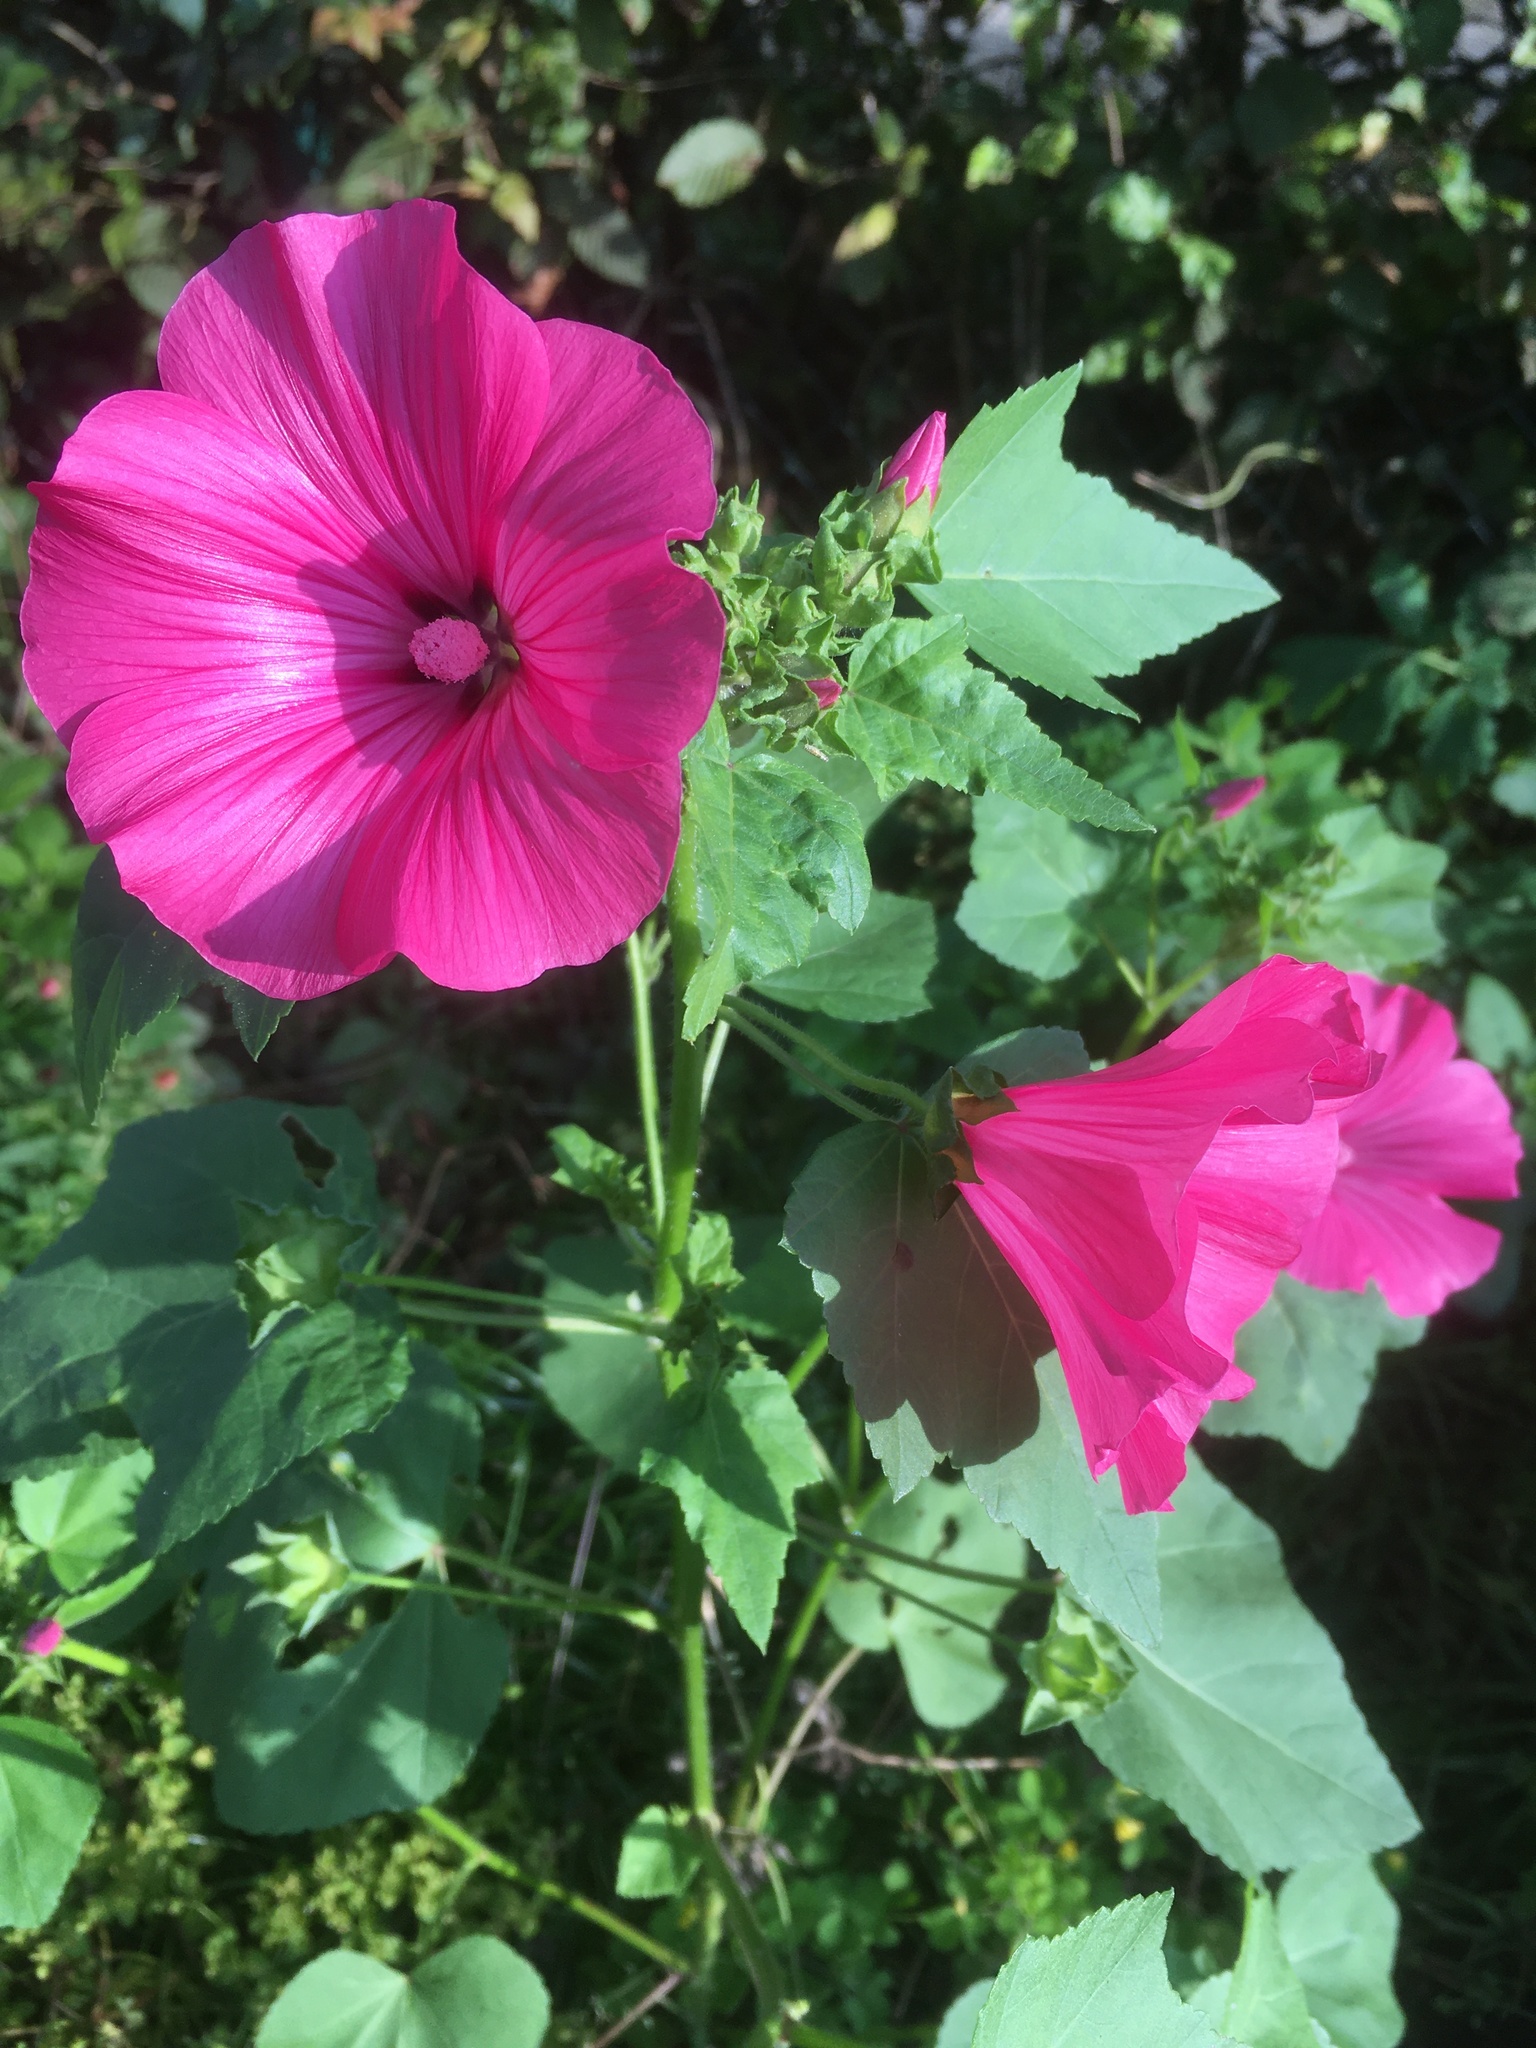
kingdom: Plantae
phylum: Tracheophyta
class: Magnoliopsida
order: Malvales
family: Malvaceae
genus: Malva
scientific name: Malva trimestris
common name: Royal mallow
